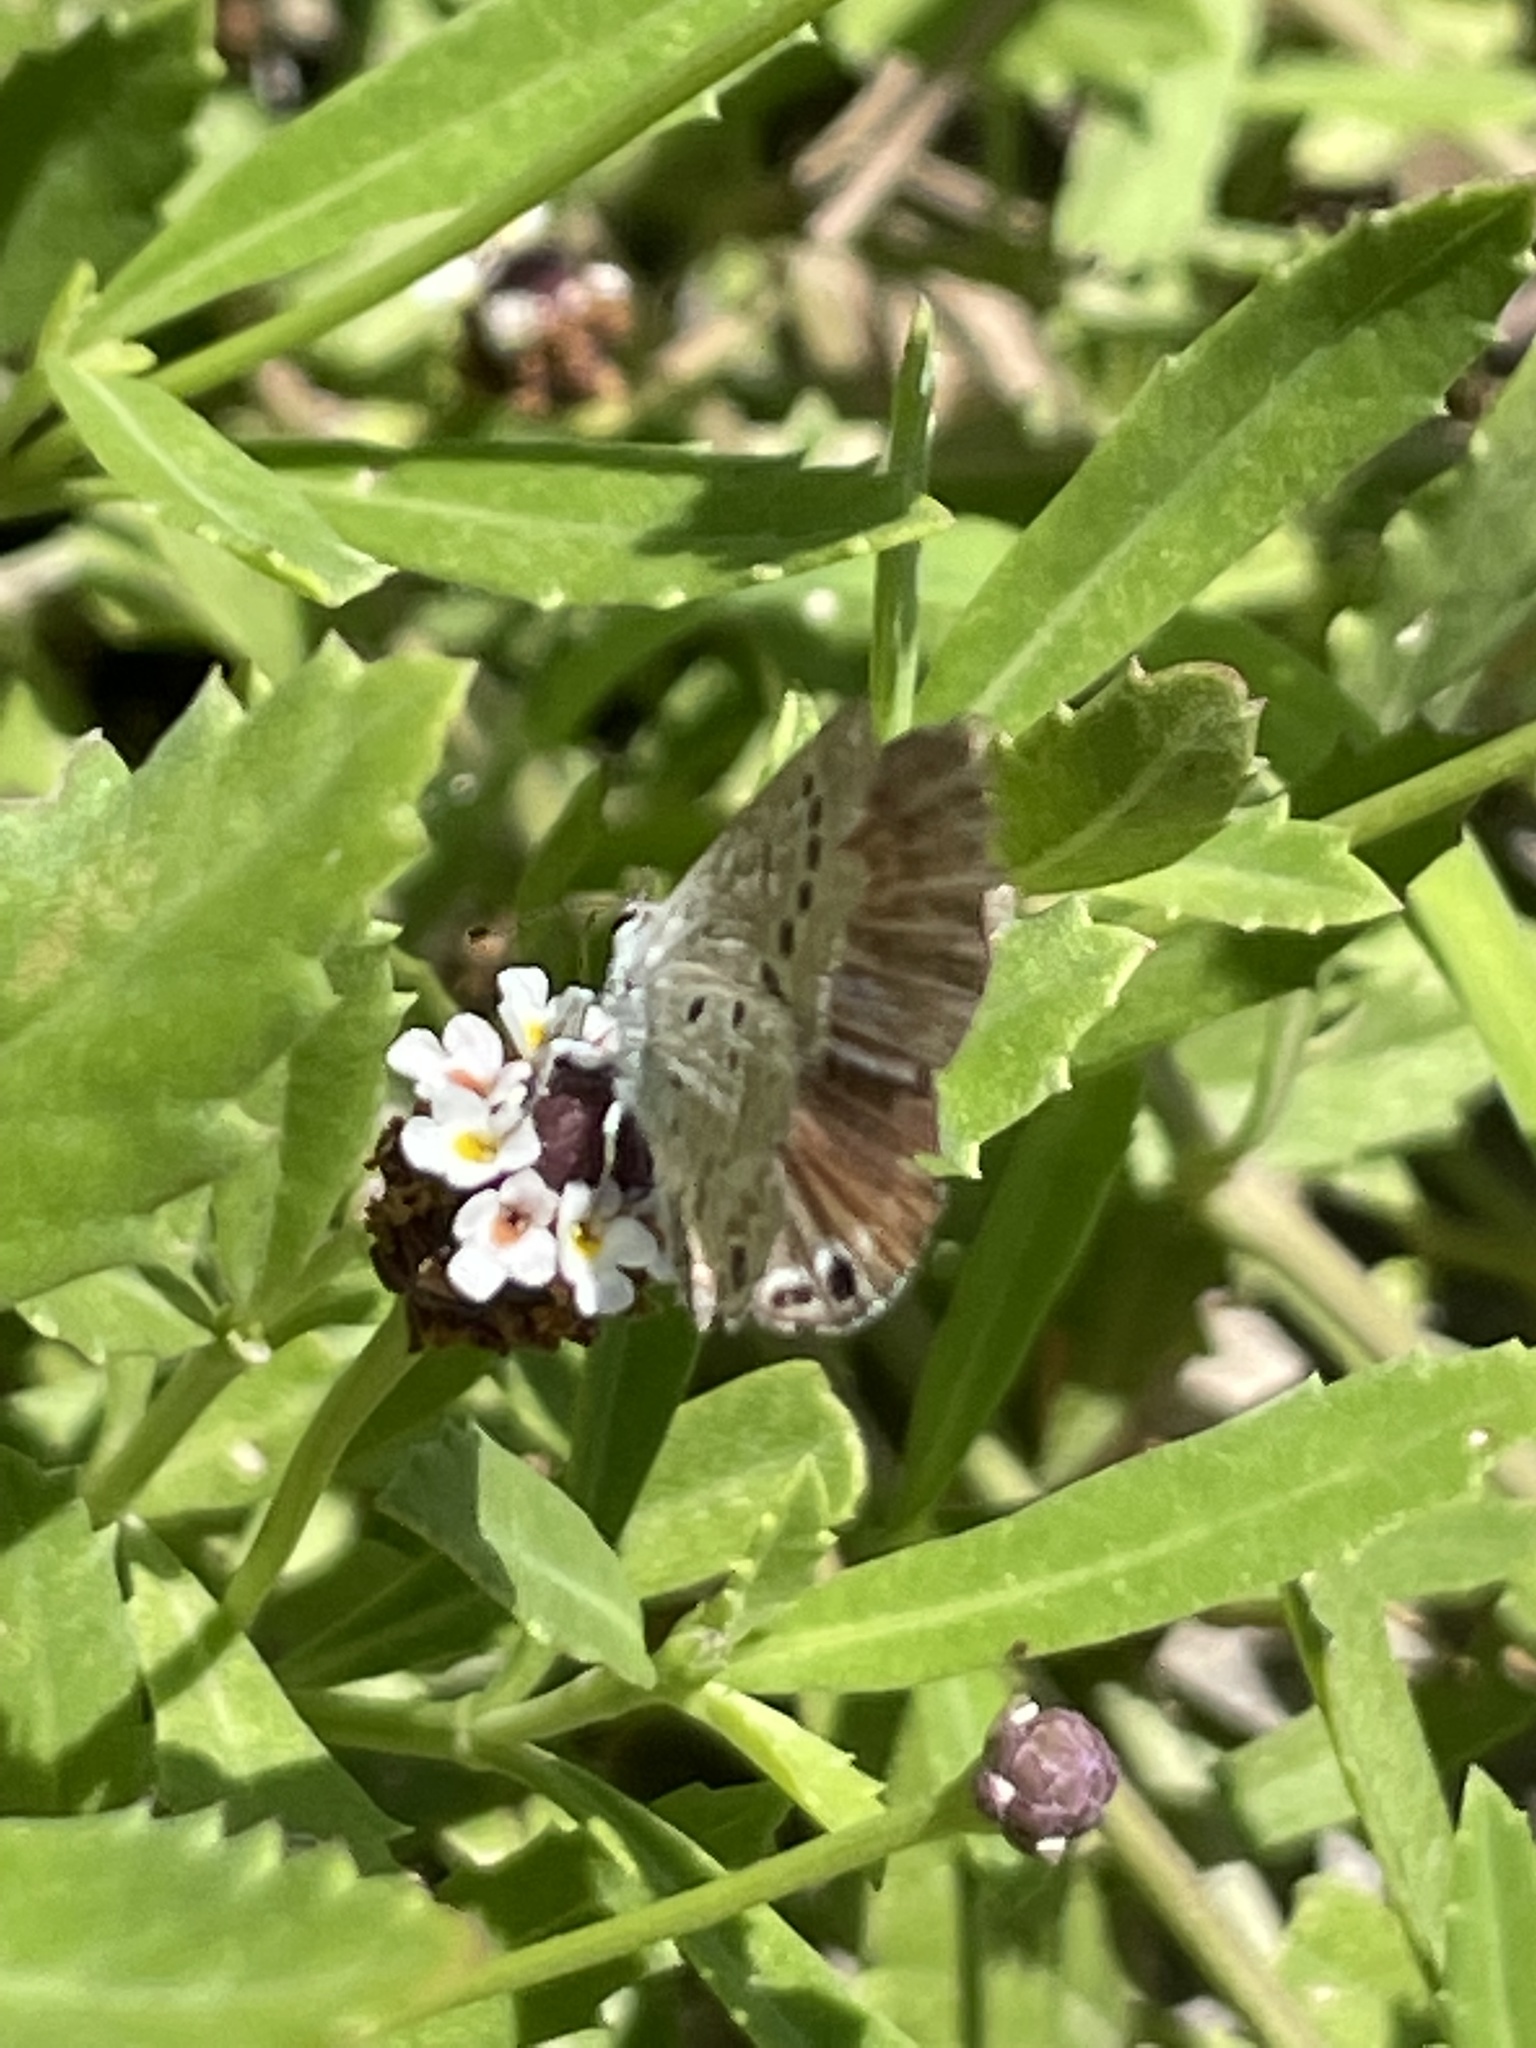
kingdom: Animalia
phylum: Arthropoda
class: Insecta
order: Lepidoptera
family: Lycaenidae
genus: Echinargus
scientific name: Echinargus isola
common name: Reakirt's blue
